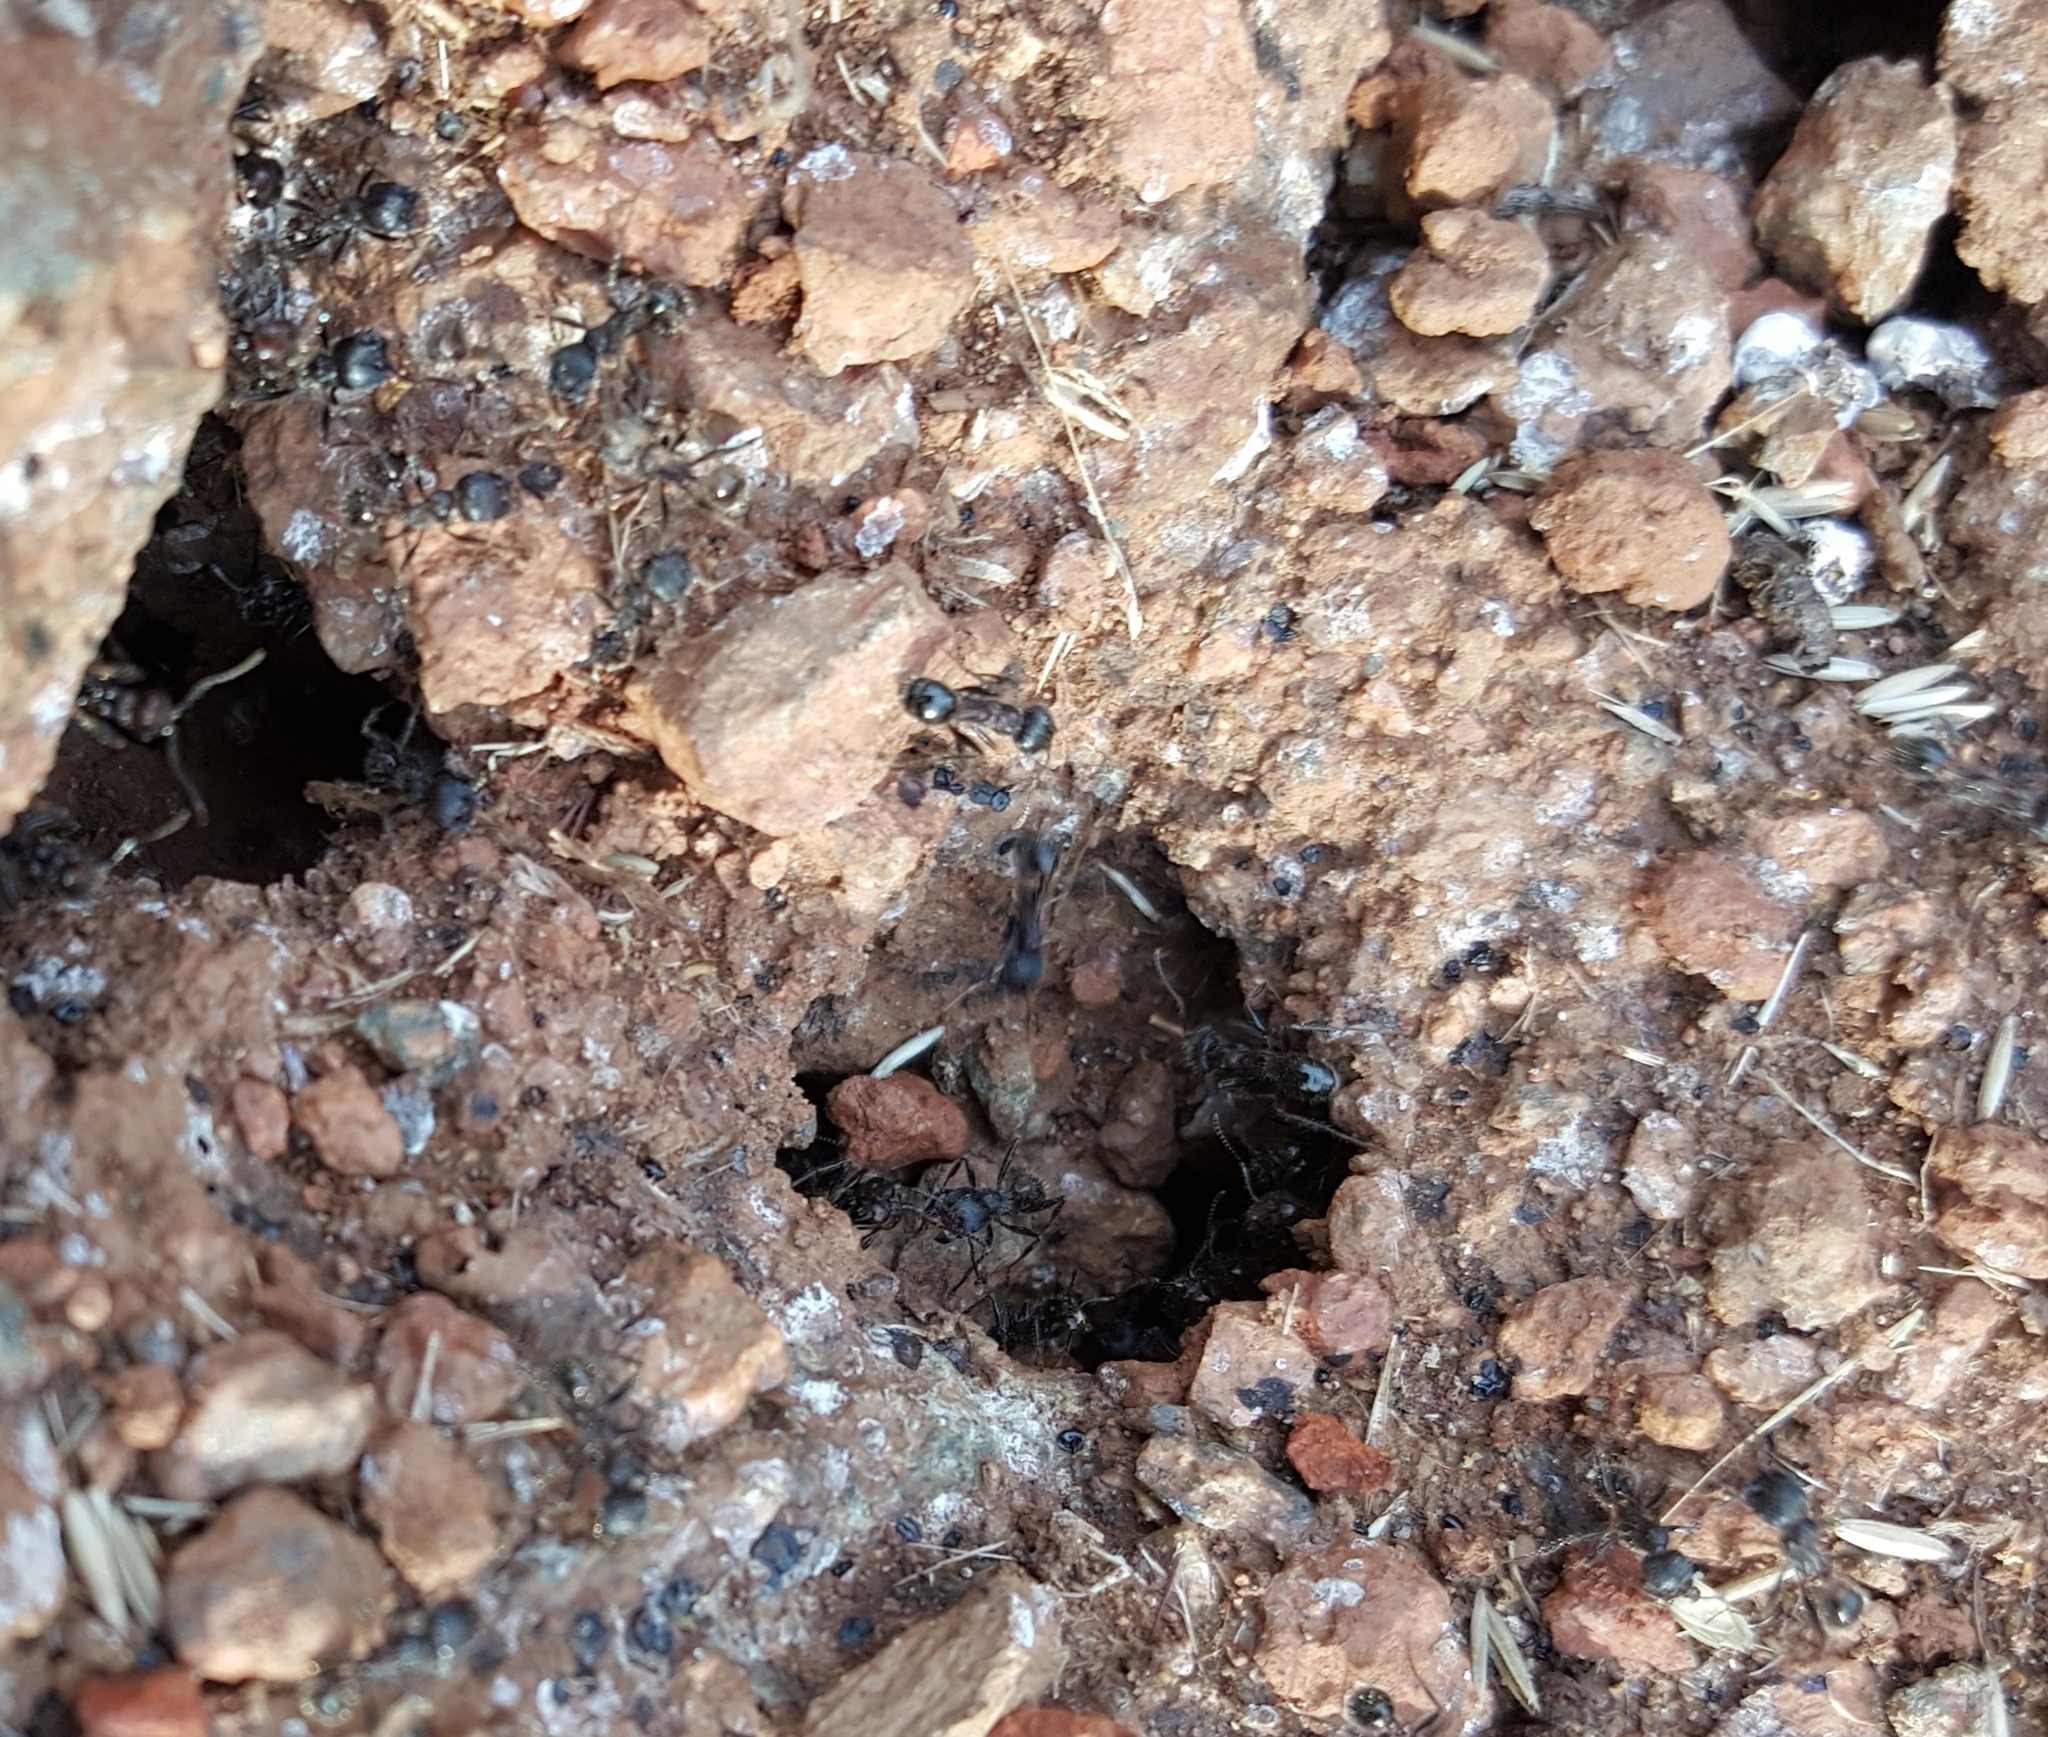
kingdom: Animalia
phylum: Arthropoda
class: Insecta
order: Hymenoptera
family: Formicidae
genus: Veromessor
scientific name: Veromessor andrei
